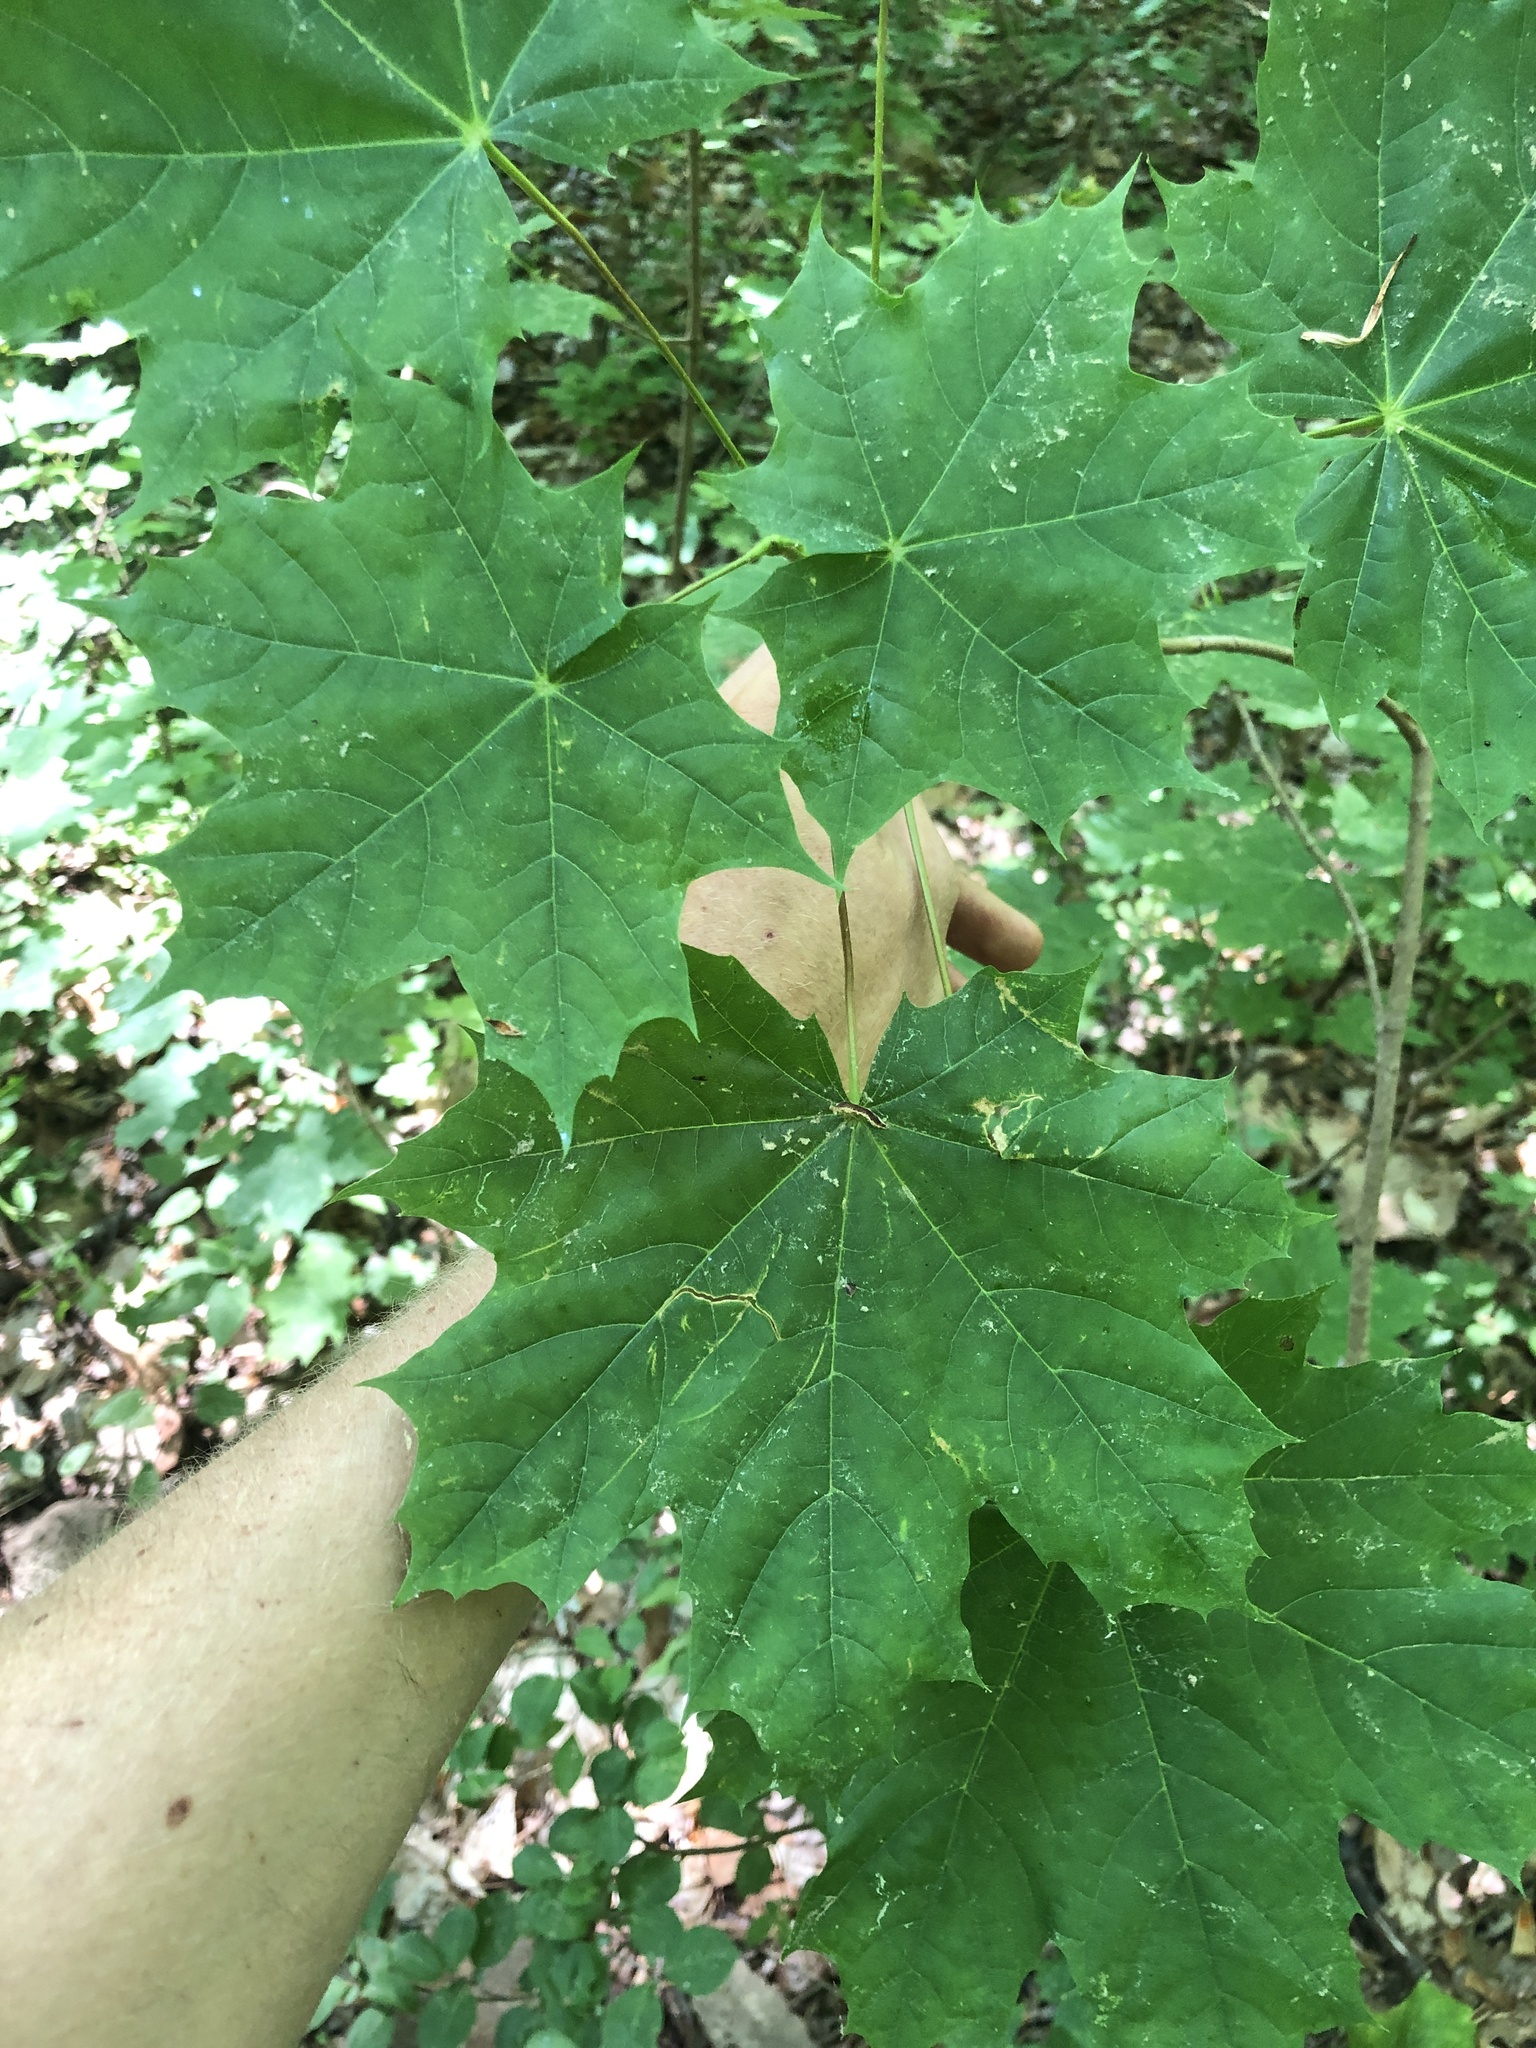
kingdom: Plantae
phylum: Tracheophyta
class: Magnoliopsida
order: Sapindales
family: Sapindaceae
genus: Acer
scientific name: Acer platanoides
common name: Norway maple
